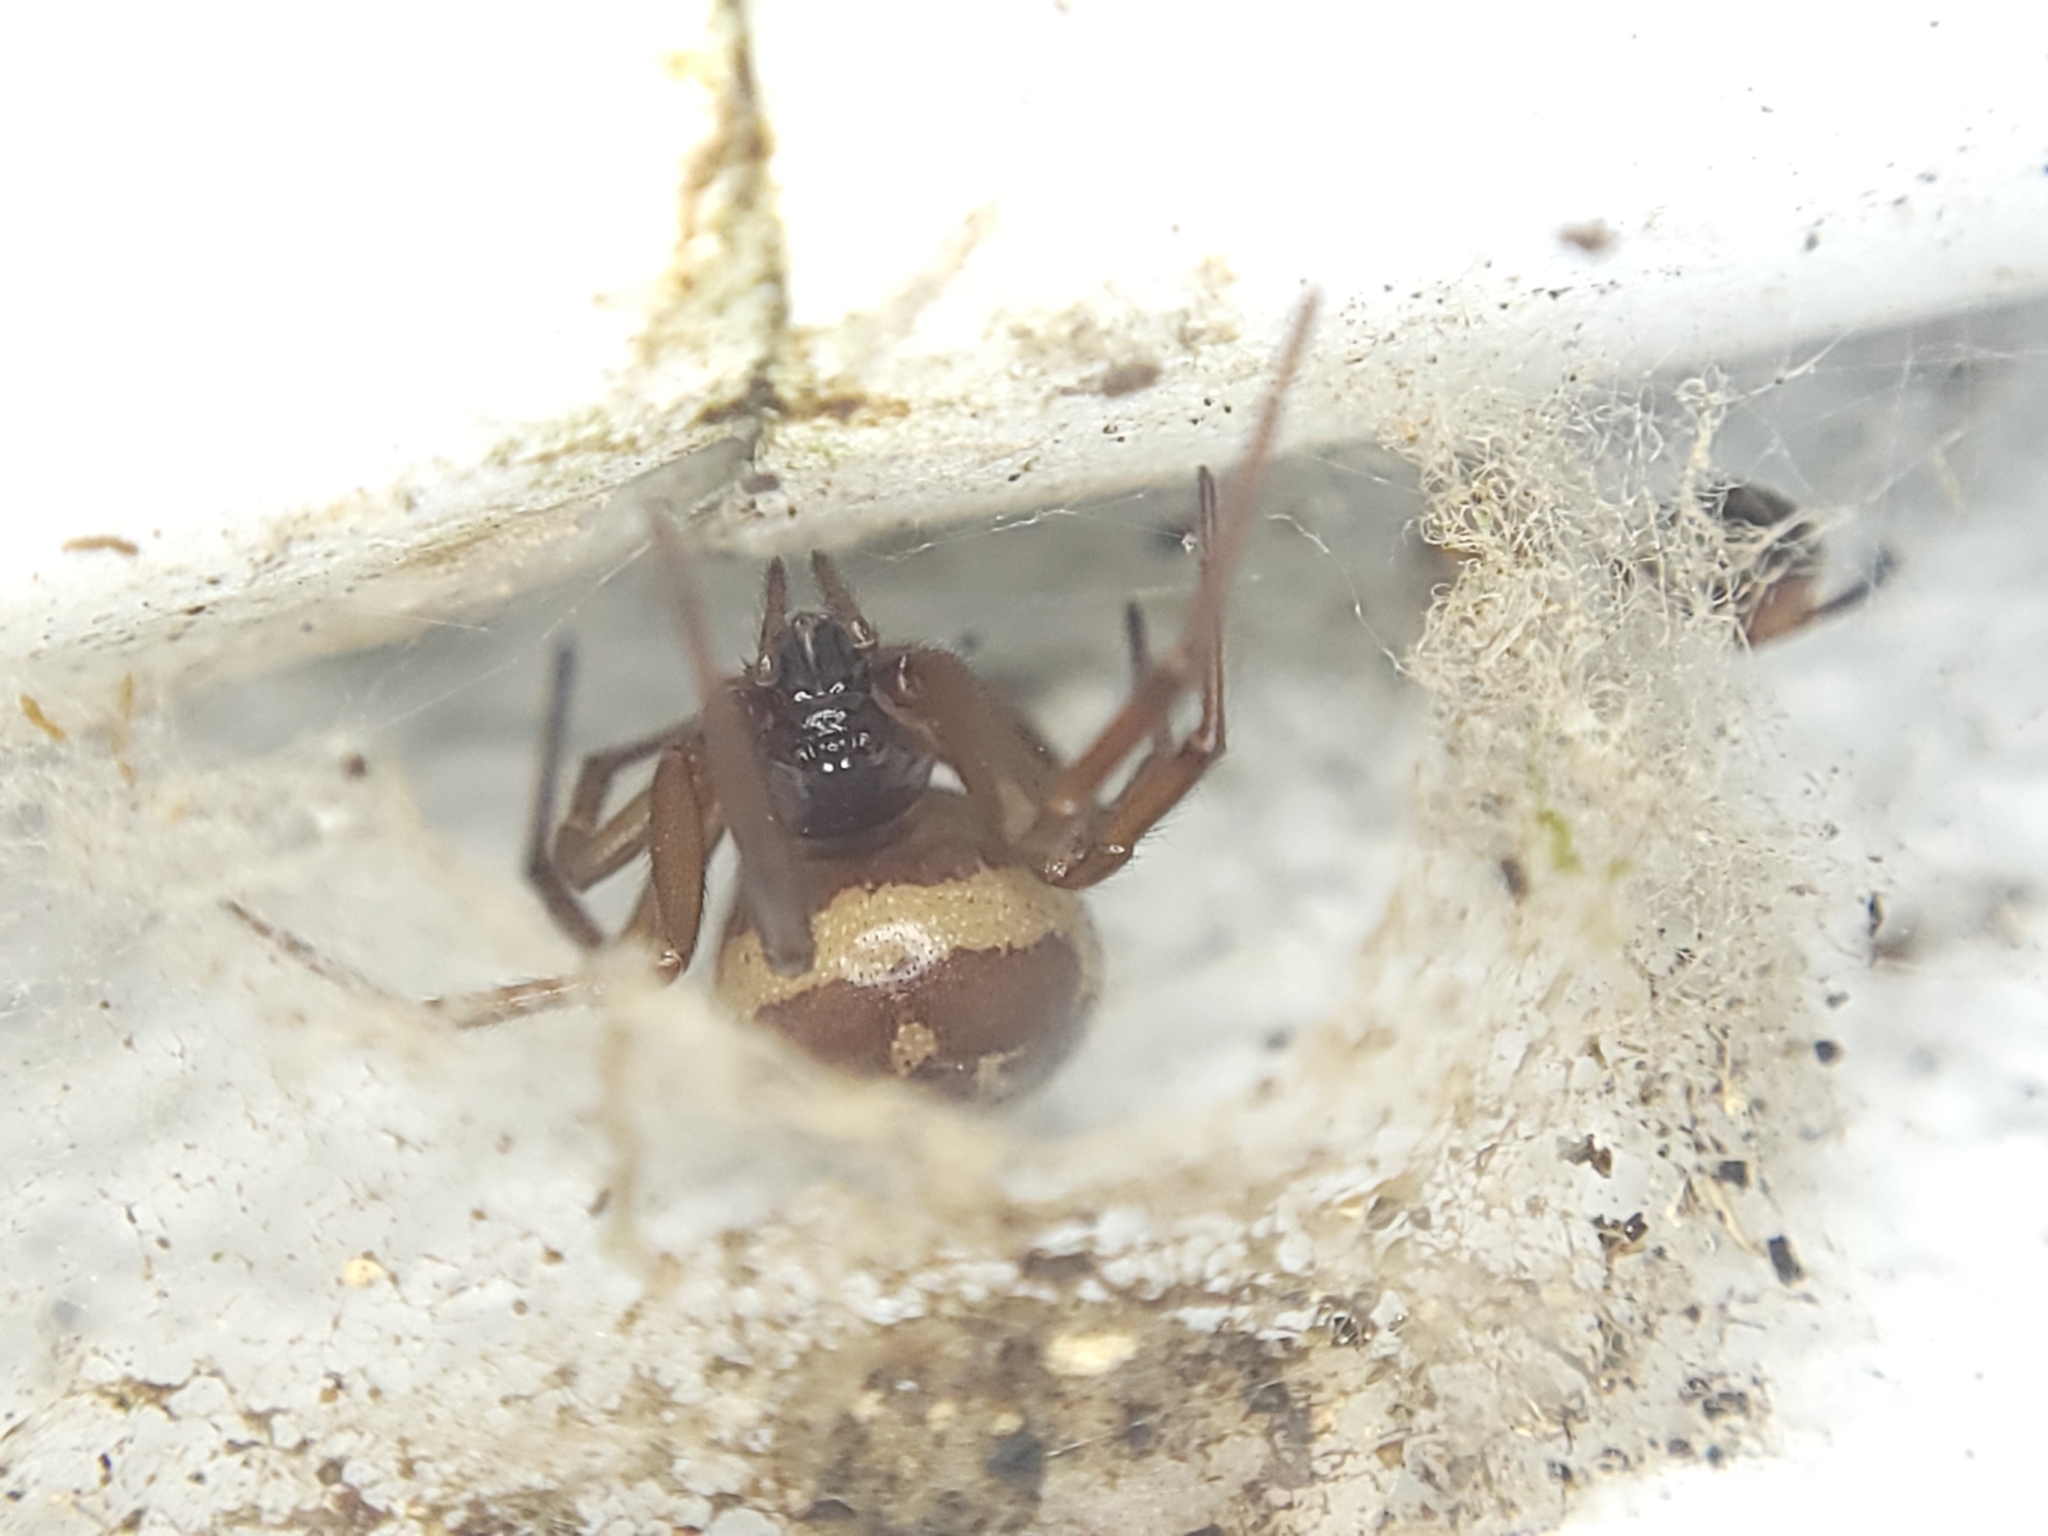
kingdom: Animalia
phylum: Arthropoda
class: Arachnida
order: Araneae
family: Theridiidae
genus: Steatoda
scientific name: Steatoda nobilis
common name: Cobweb weaver
